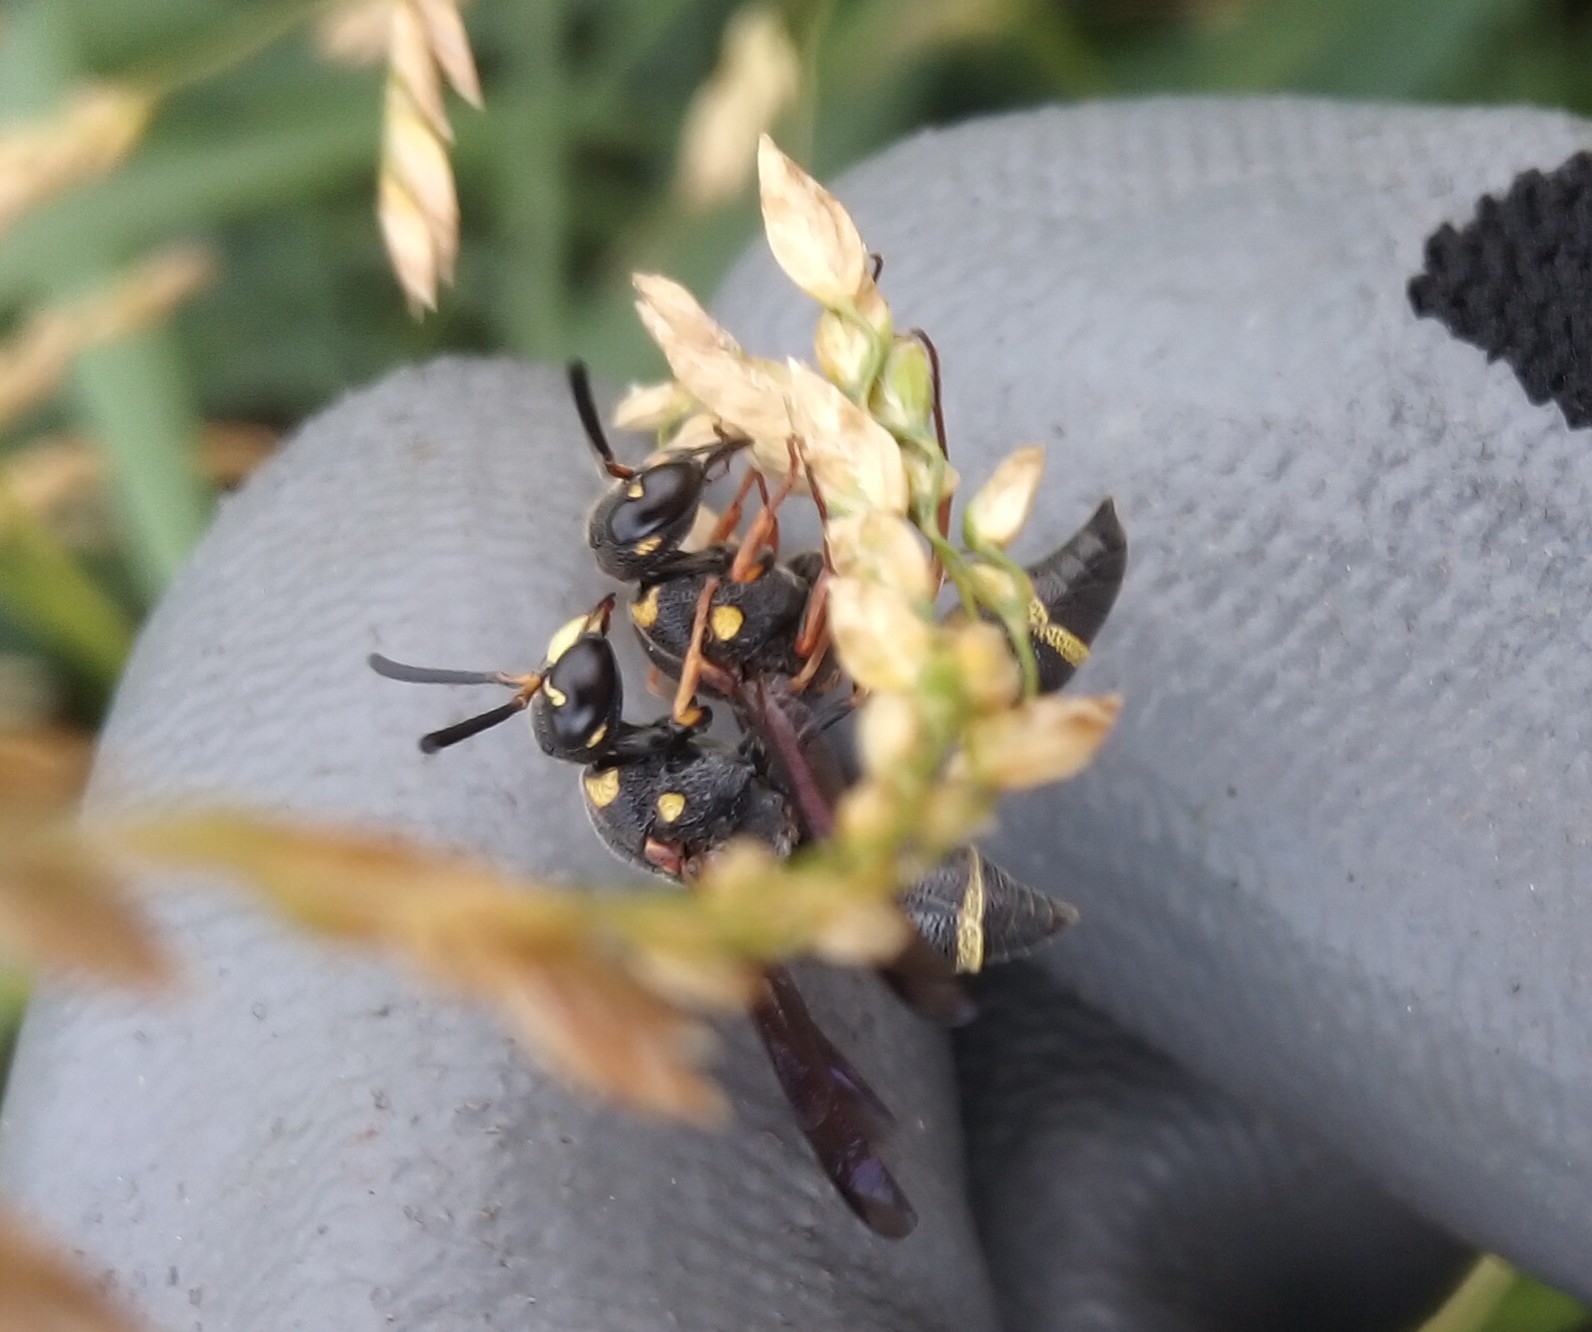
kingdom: Animalia
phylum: Arthropoda
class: Insecta
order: Hymenoptera
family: Eumenidae
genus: Parancistrocerus
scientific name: Parancistrocerus fulvipes
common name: Potter wasp
